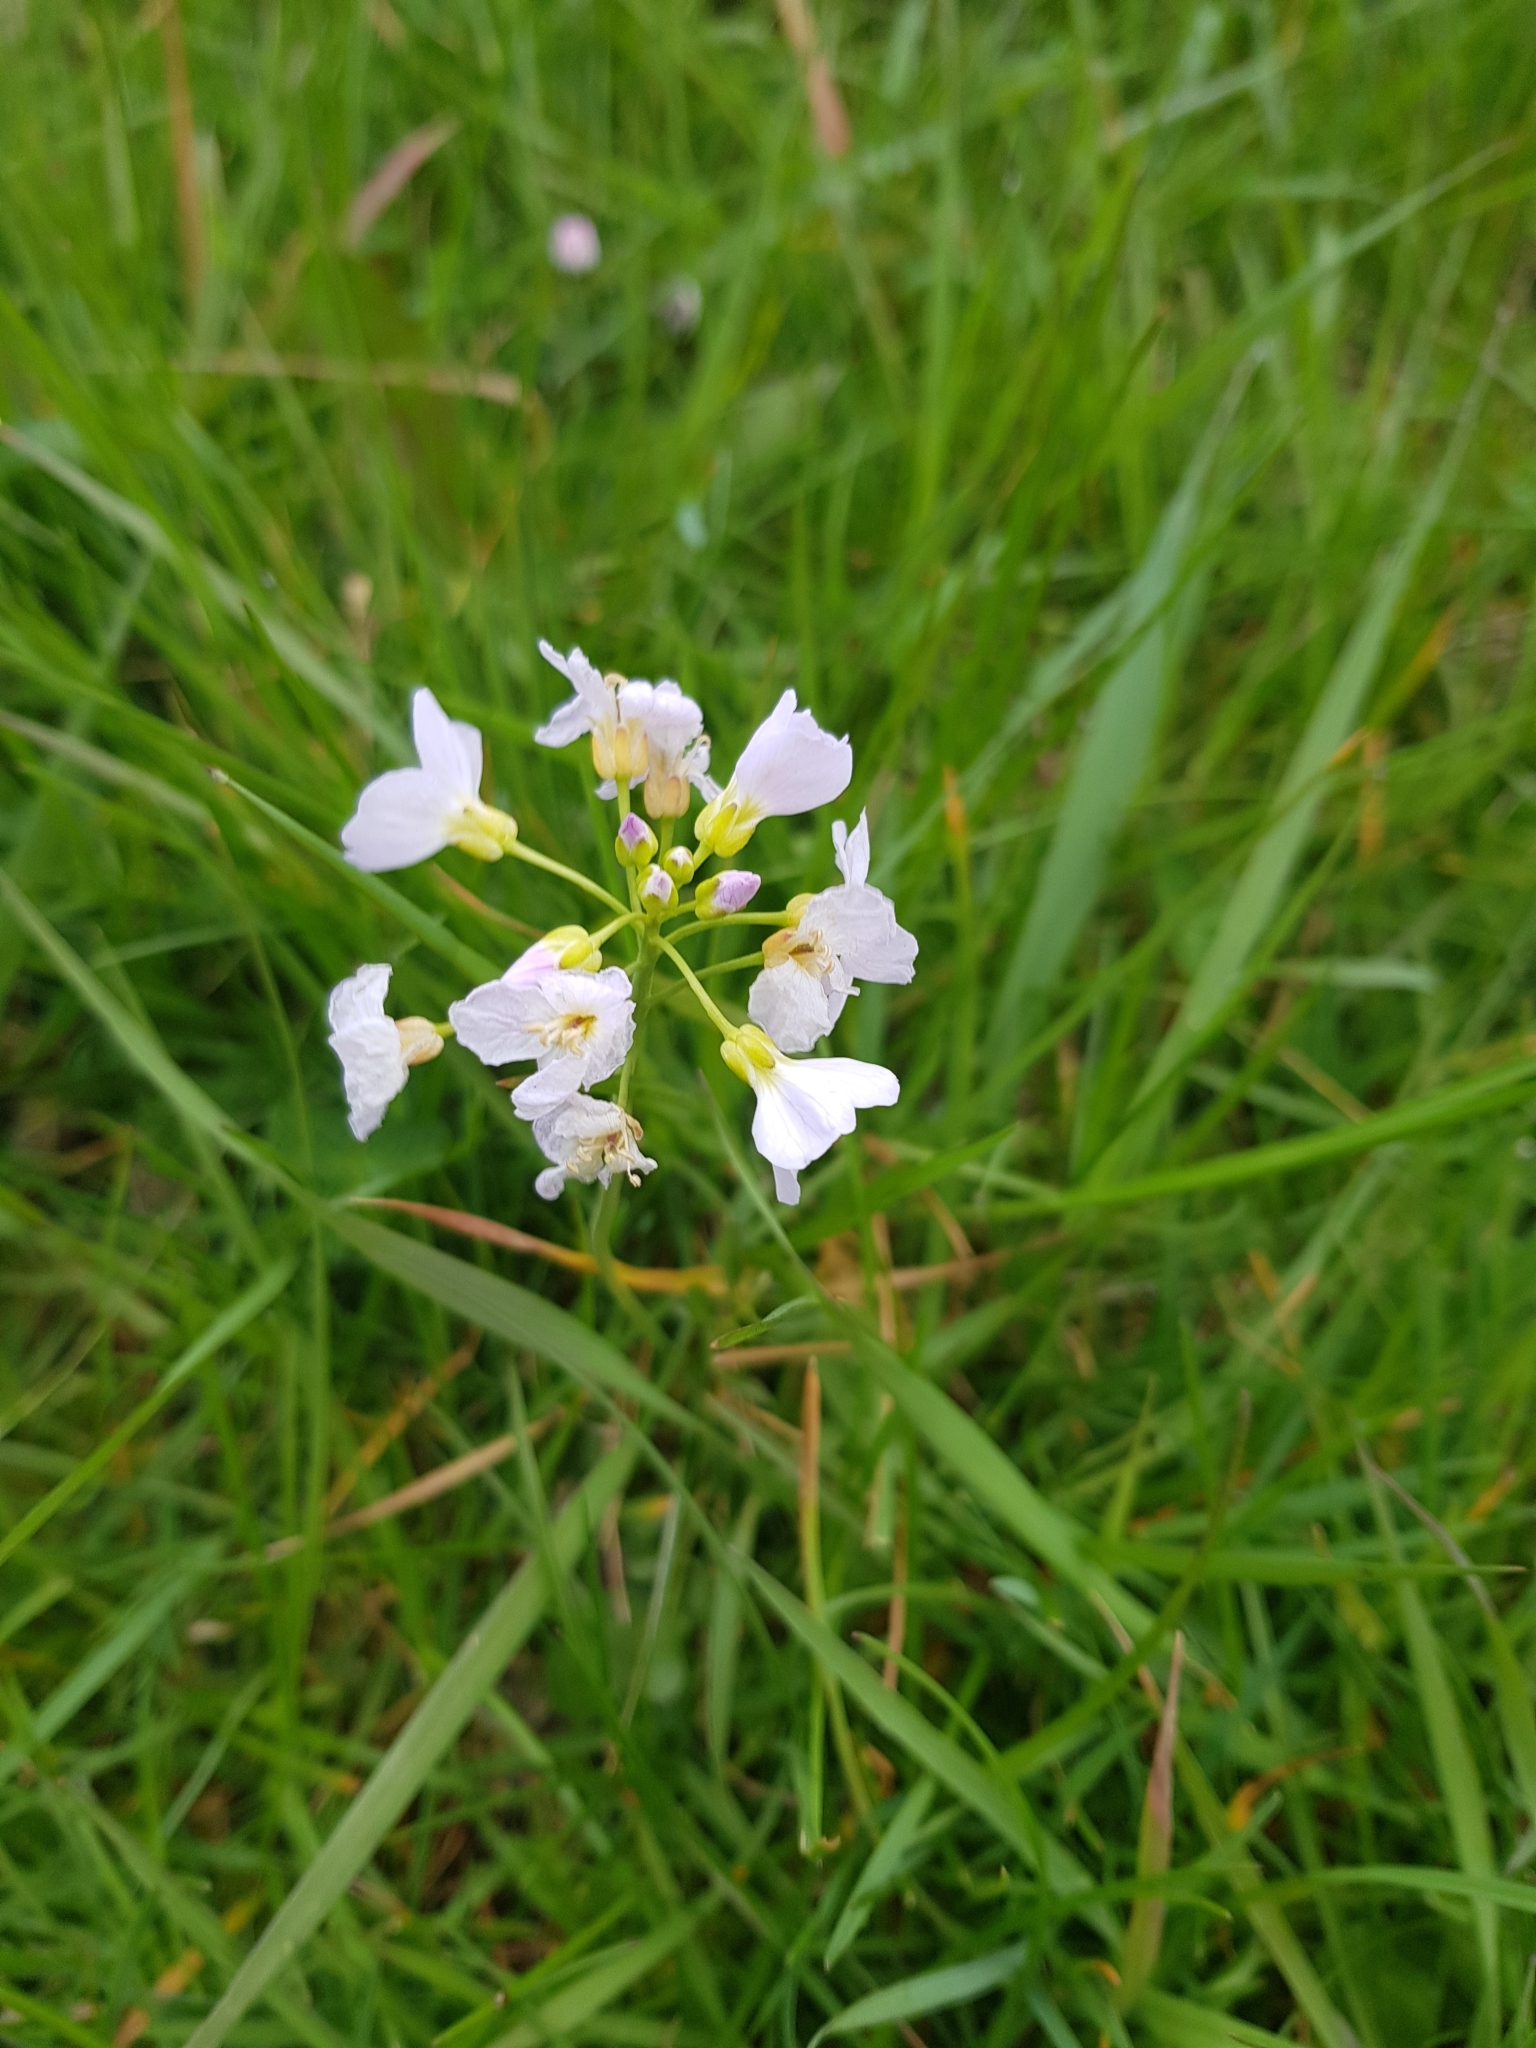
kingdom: Plantae
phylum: Tracheophyta
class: Magnoliopsida
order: Brassicales
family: Brassicaceae
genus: Cardamine
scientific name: Cardamine pratensis
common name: Cuckoo flower
